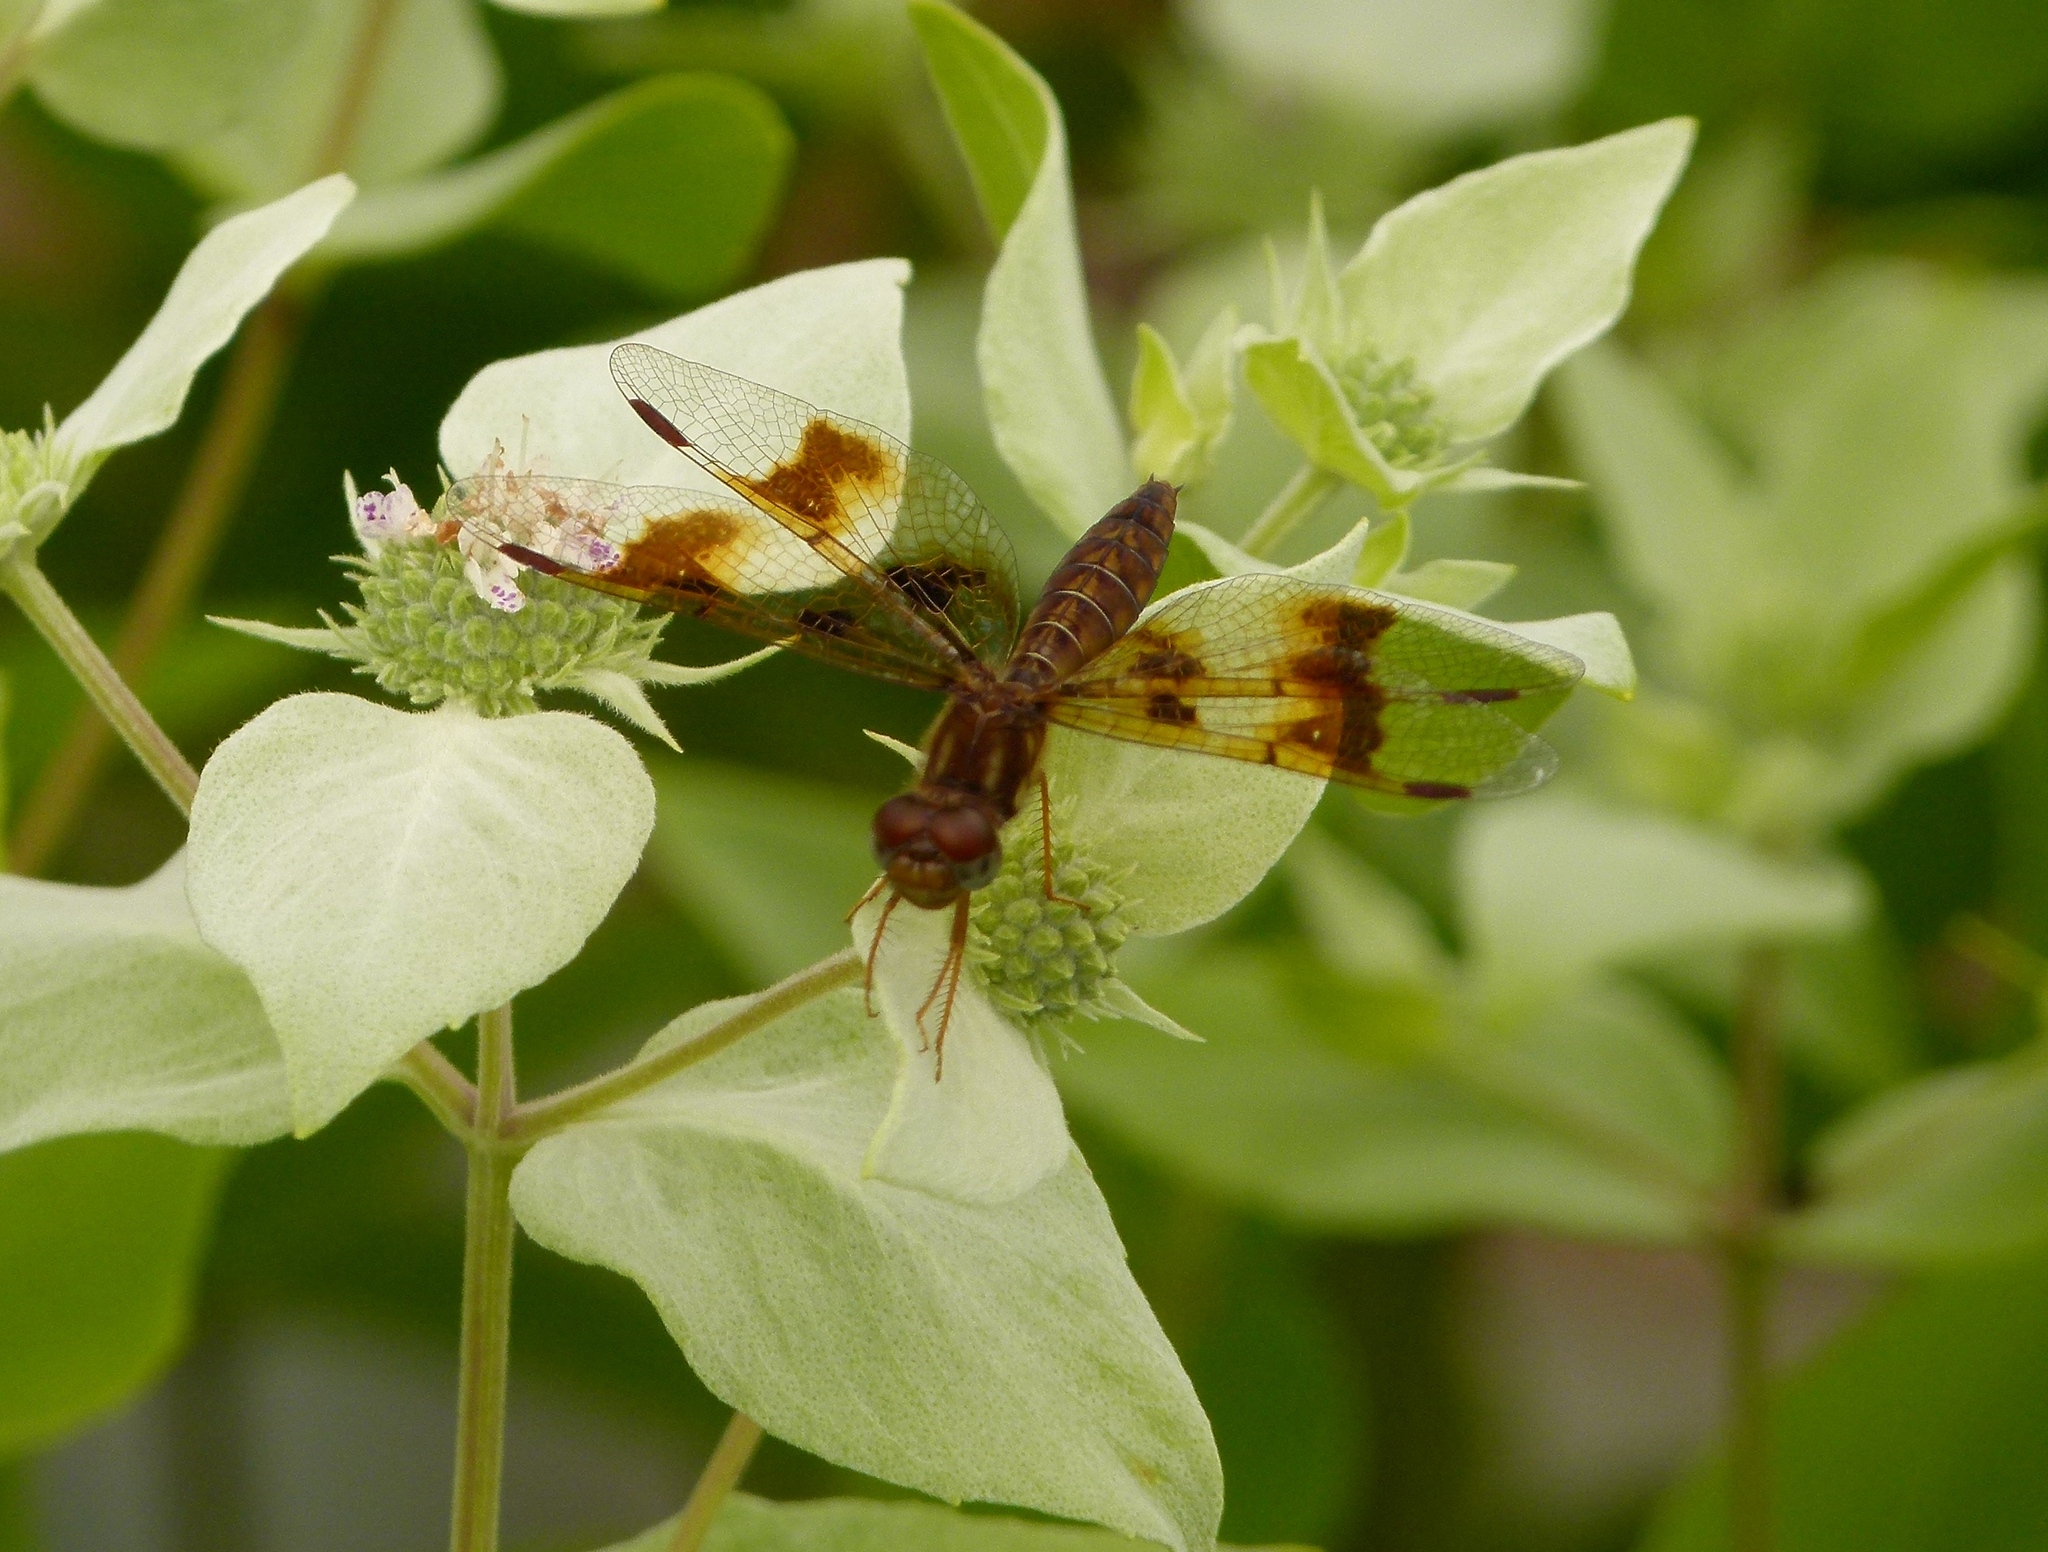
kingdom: Animalia
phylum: Arthropoda
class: Insecta
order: Odonata
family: Libellulidae
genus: Perithemis
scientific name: Perithemis tenera
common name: Eastern amberwing
